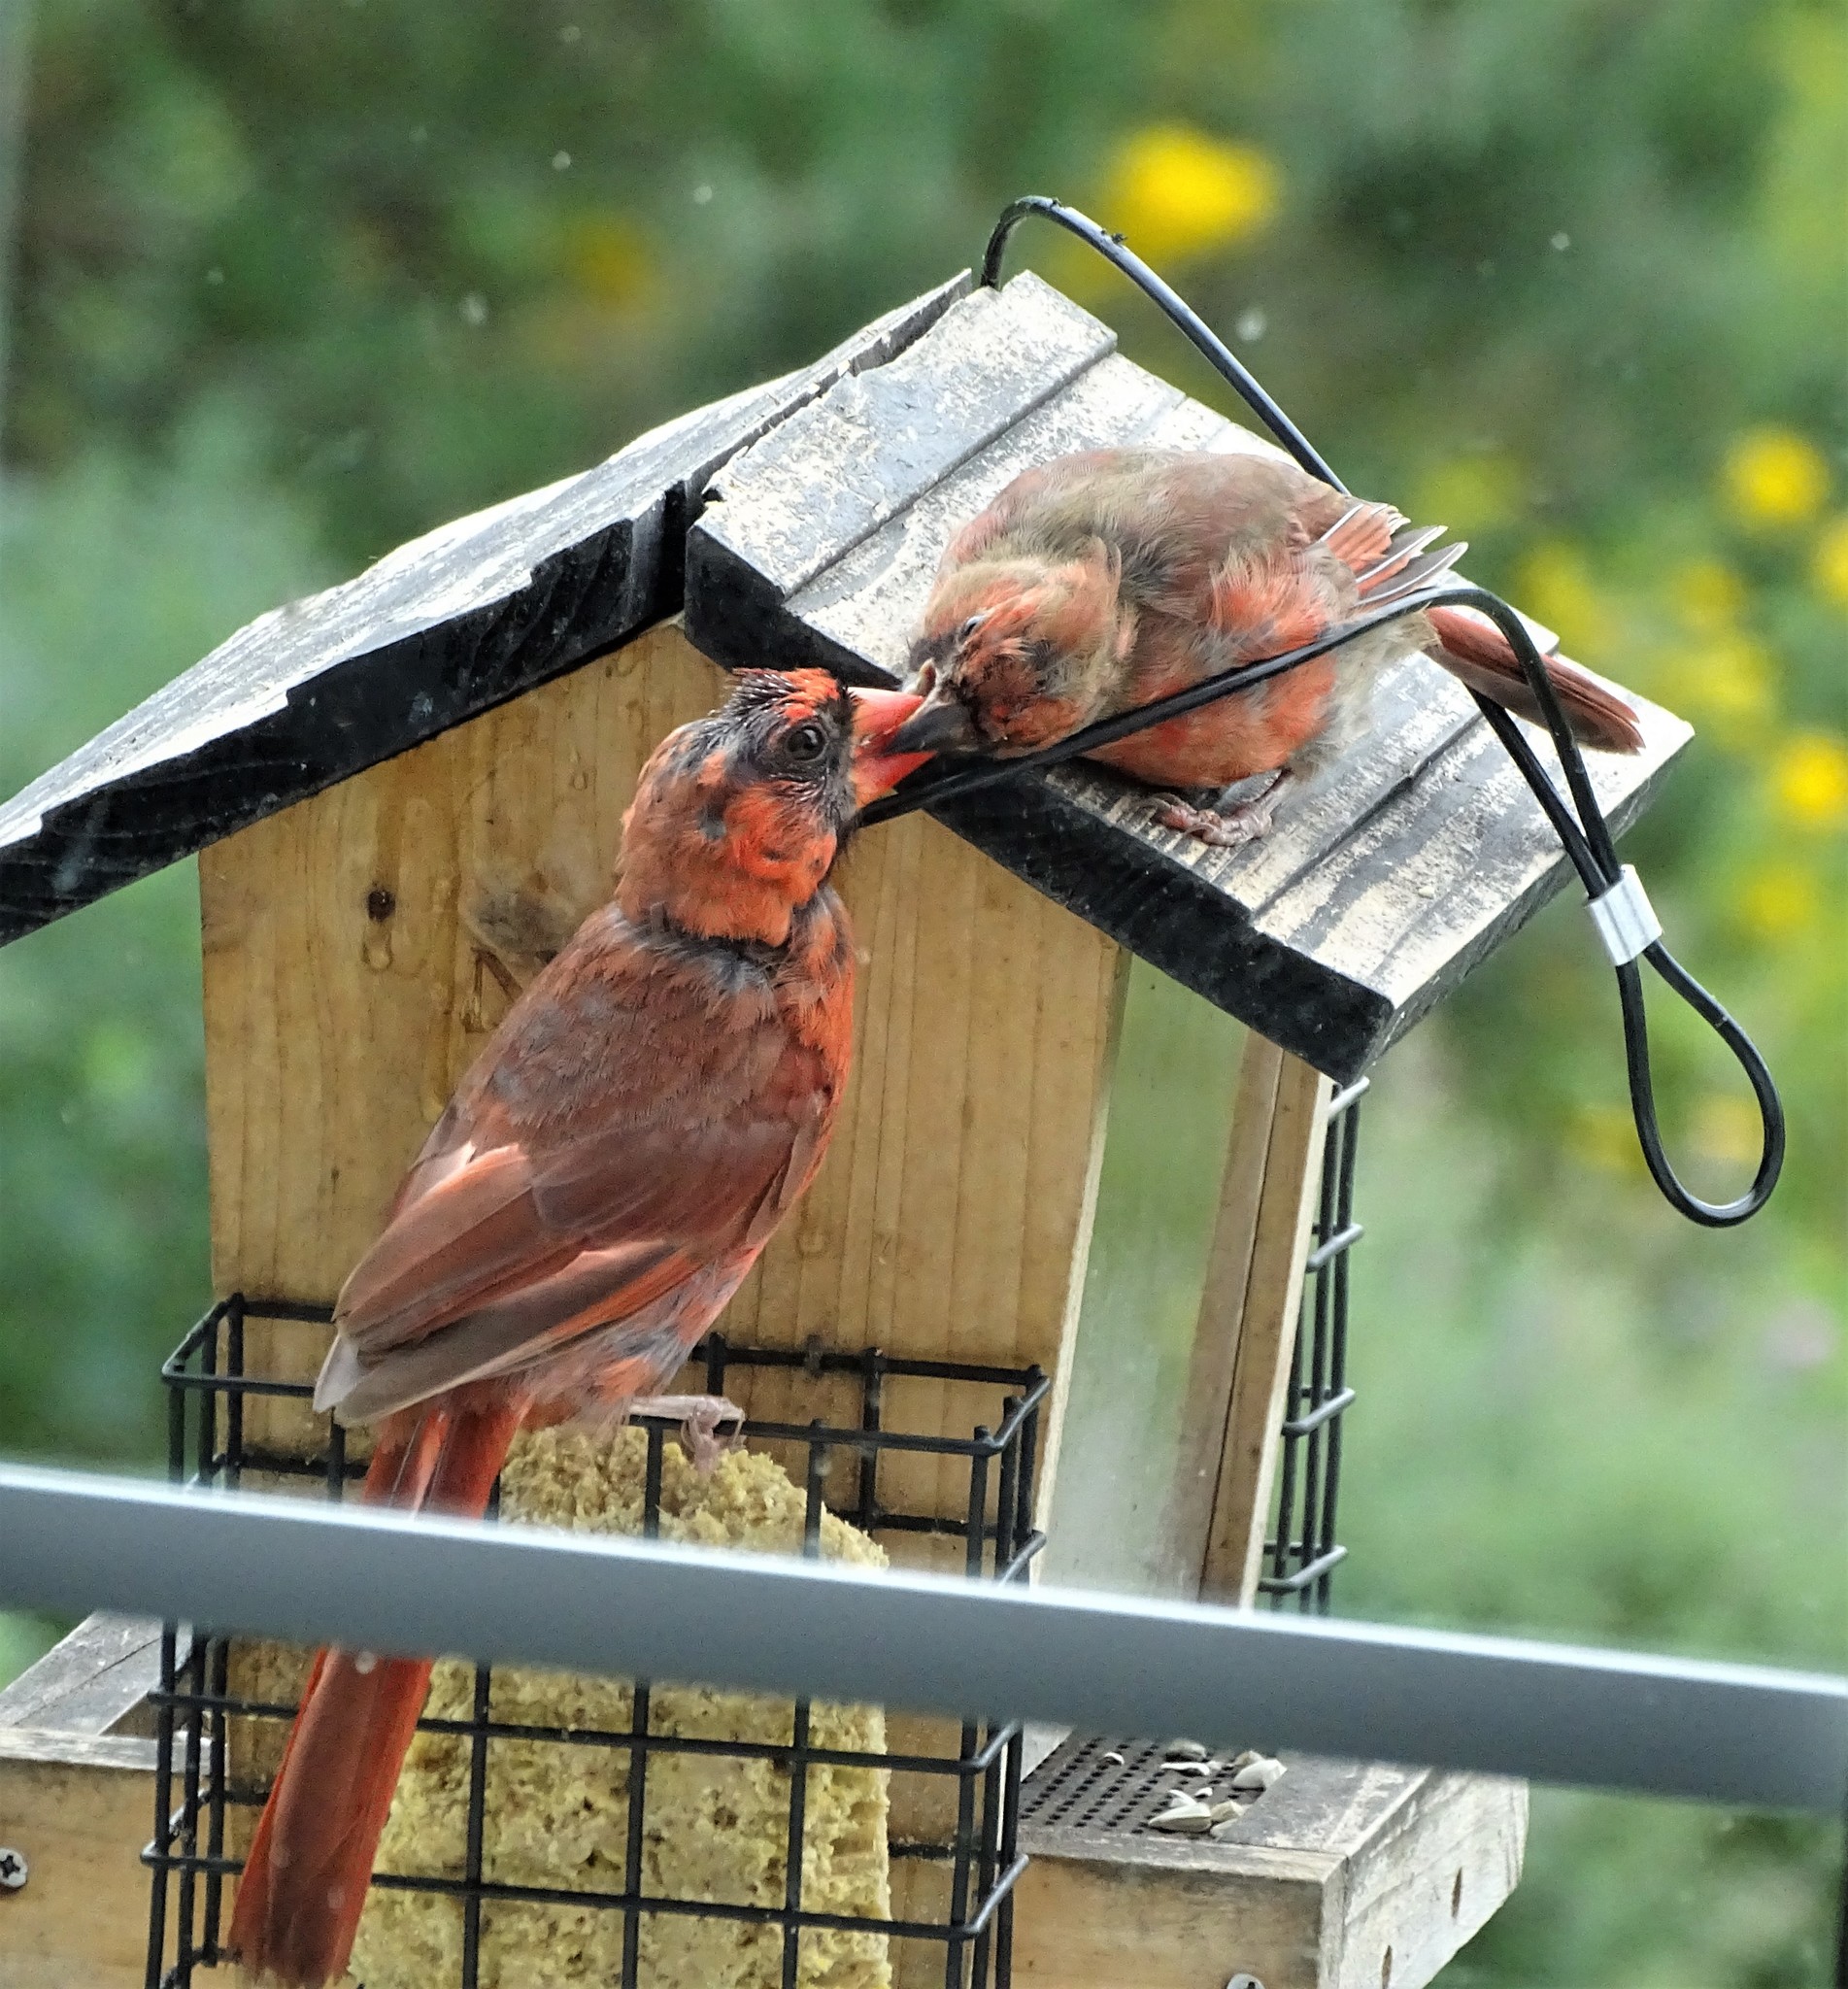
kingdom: Animalia
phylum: Chordata
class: Aves
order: Passeriformes
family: Cardinalidae
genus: Cardinalis
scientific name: Cardinalis cardinalis
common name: Northern cardinal
